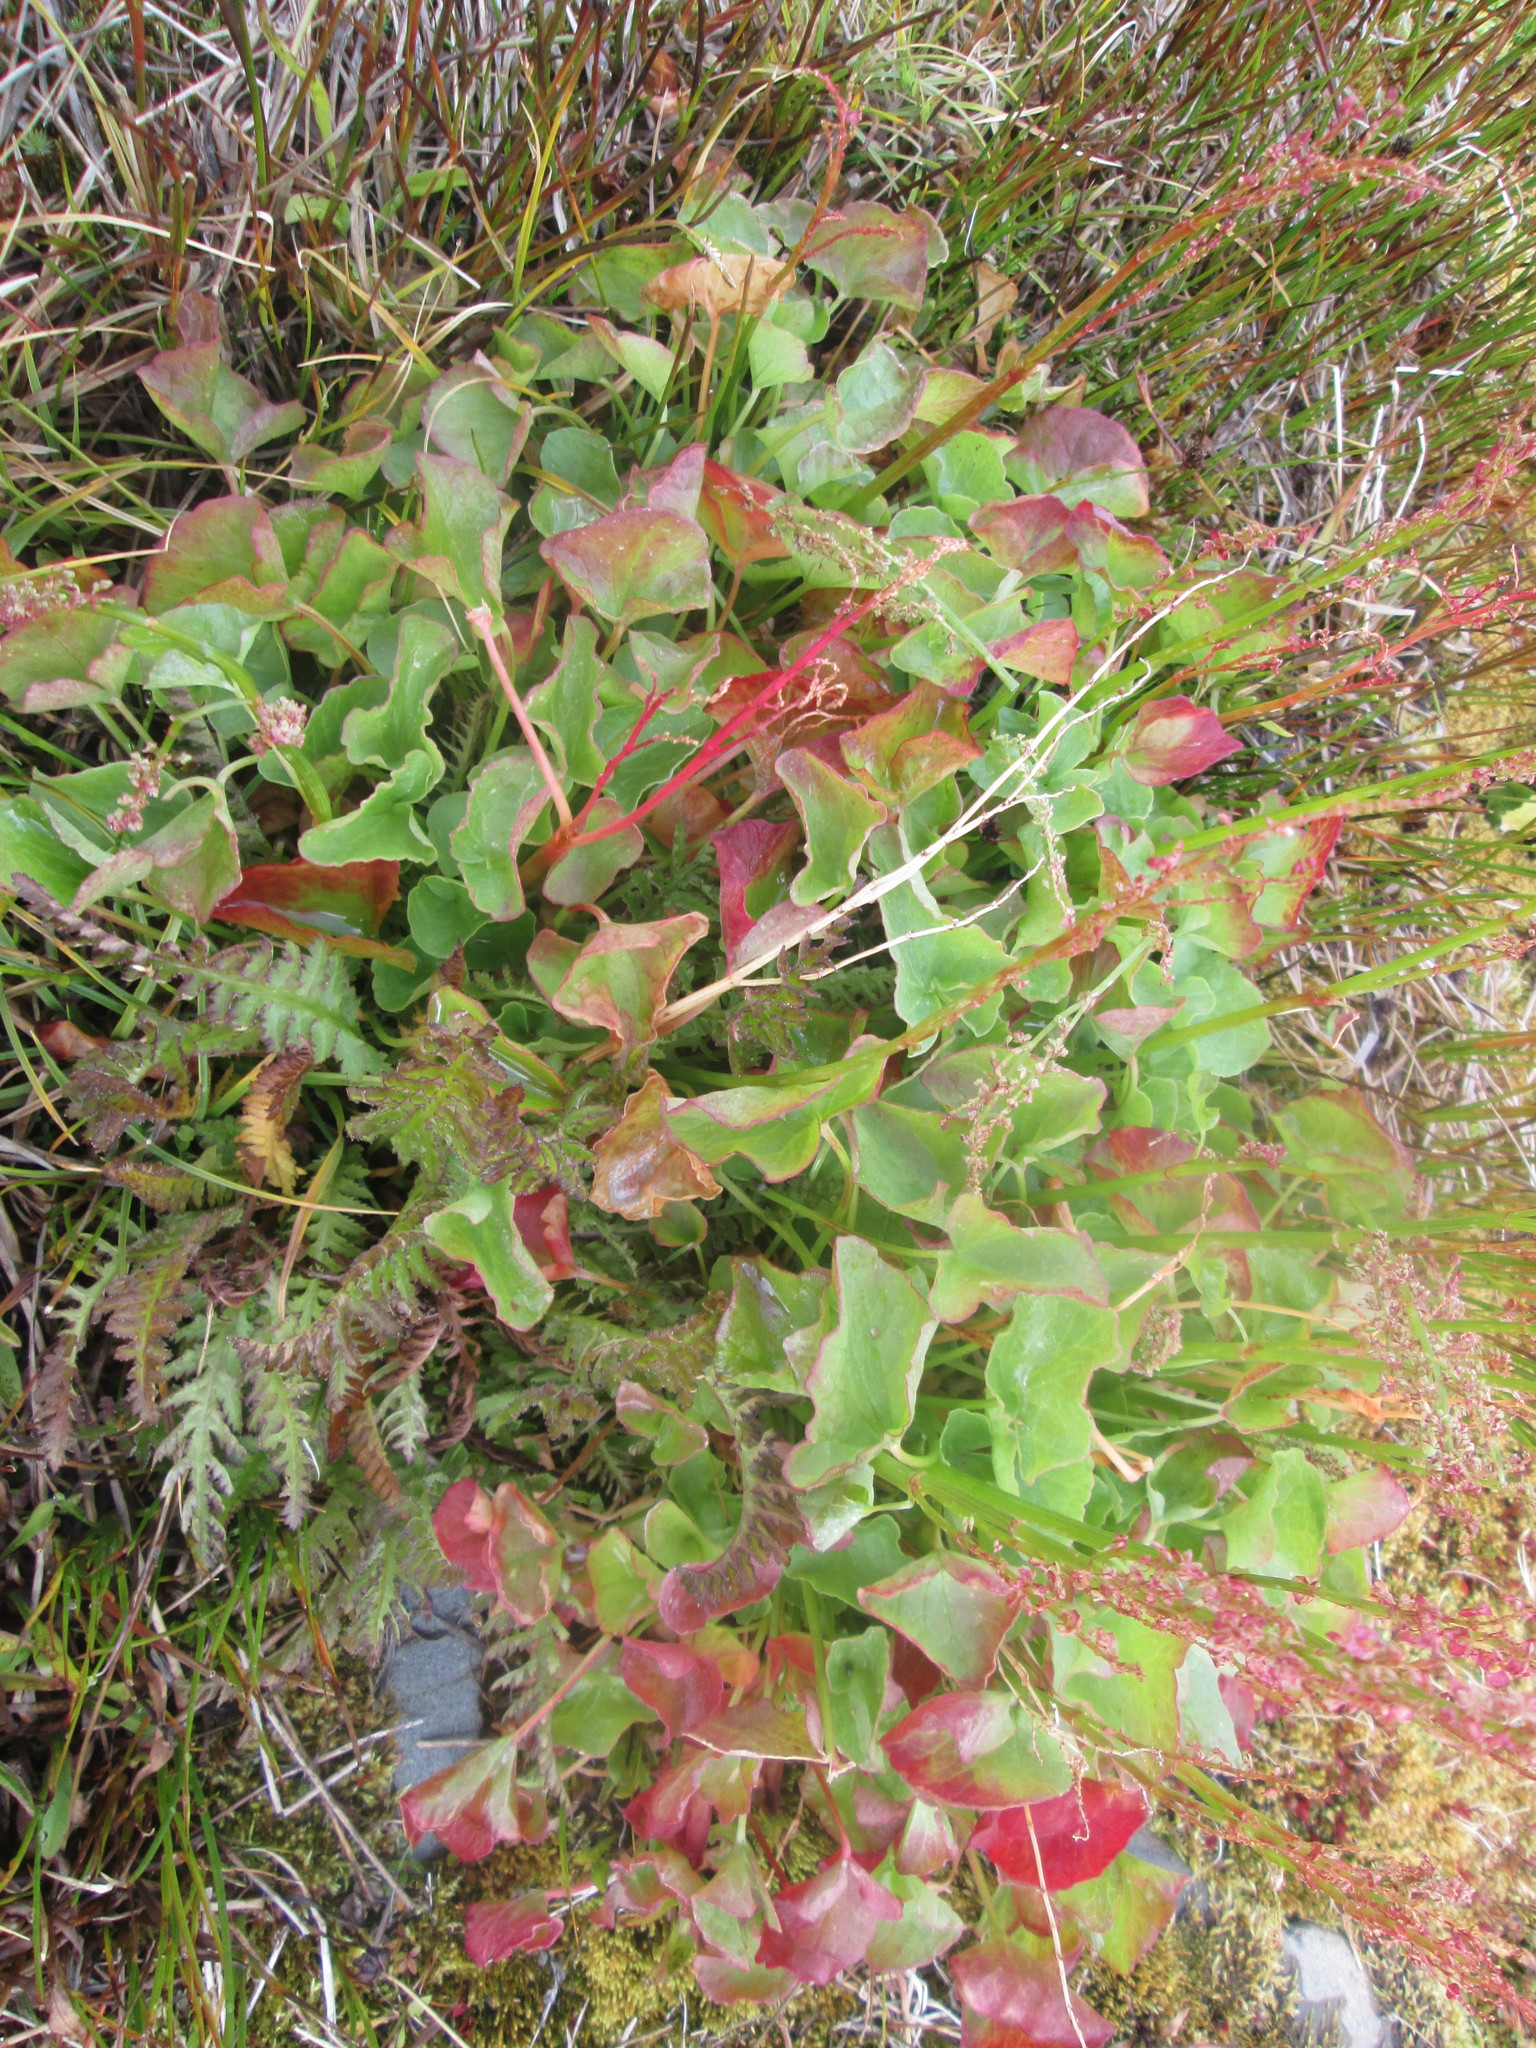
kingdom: Plantae
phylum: Tracheophyta
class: Magnoliopsida
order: Caryophyllales
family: Polygonaceae
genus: Oxyria
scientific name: Oxyria digyna
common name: Alpine mountain-sorrel
